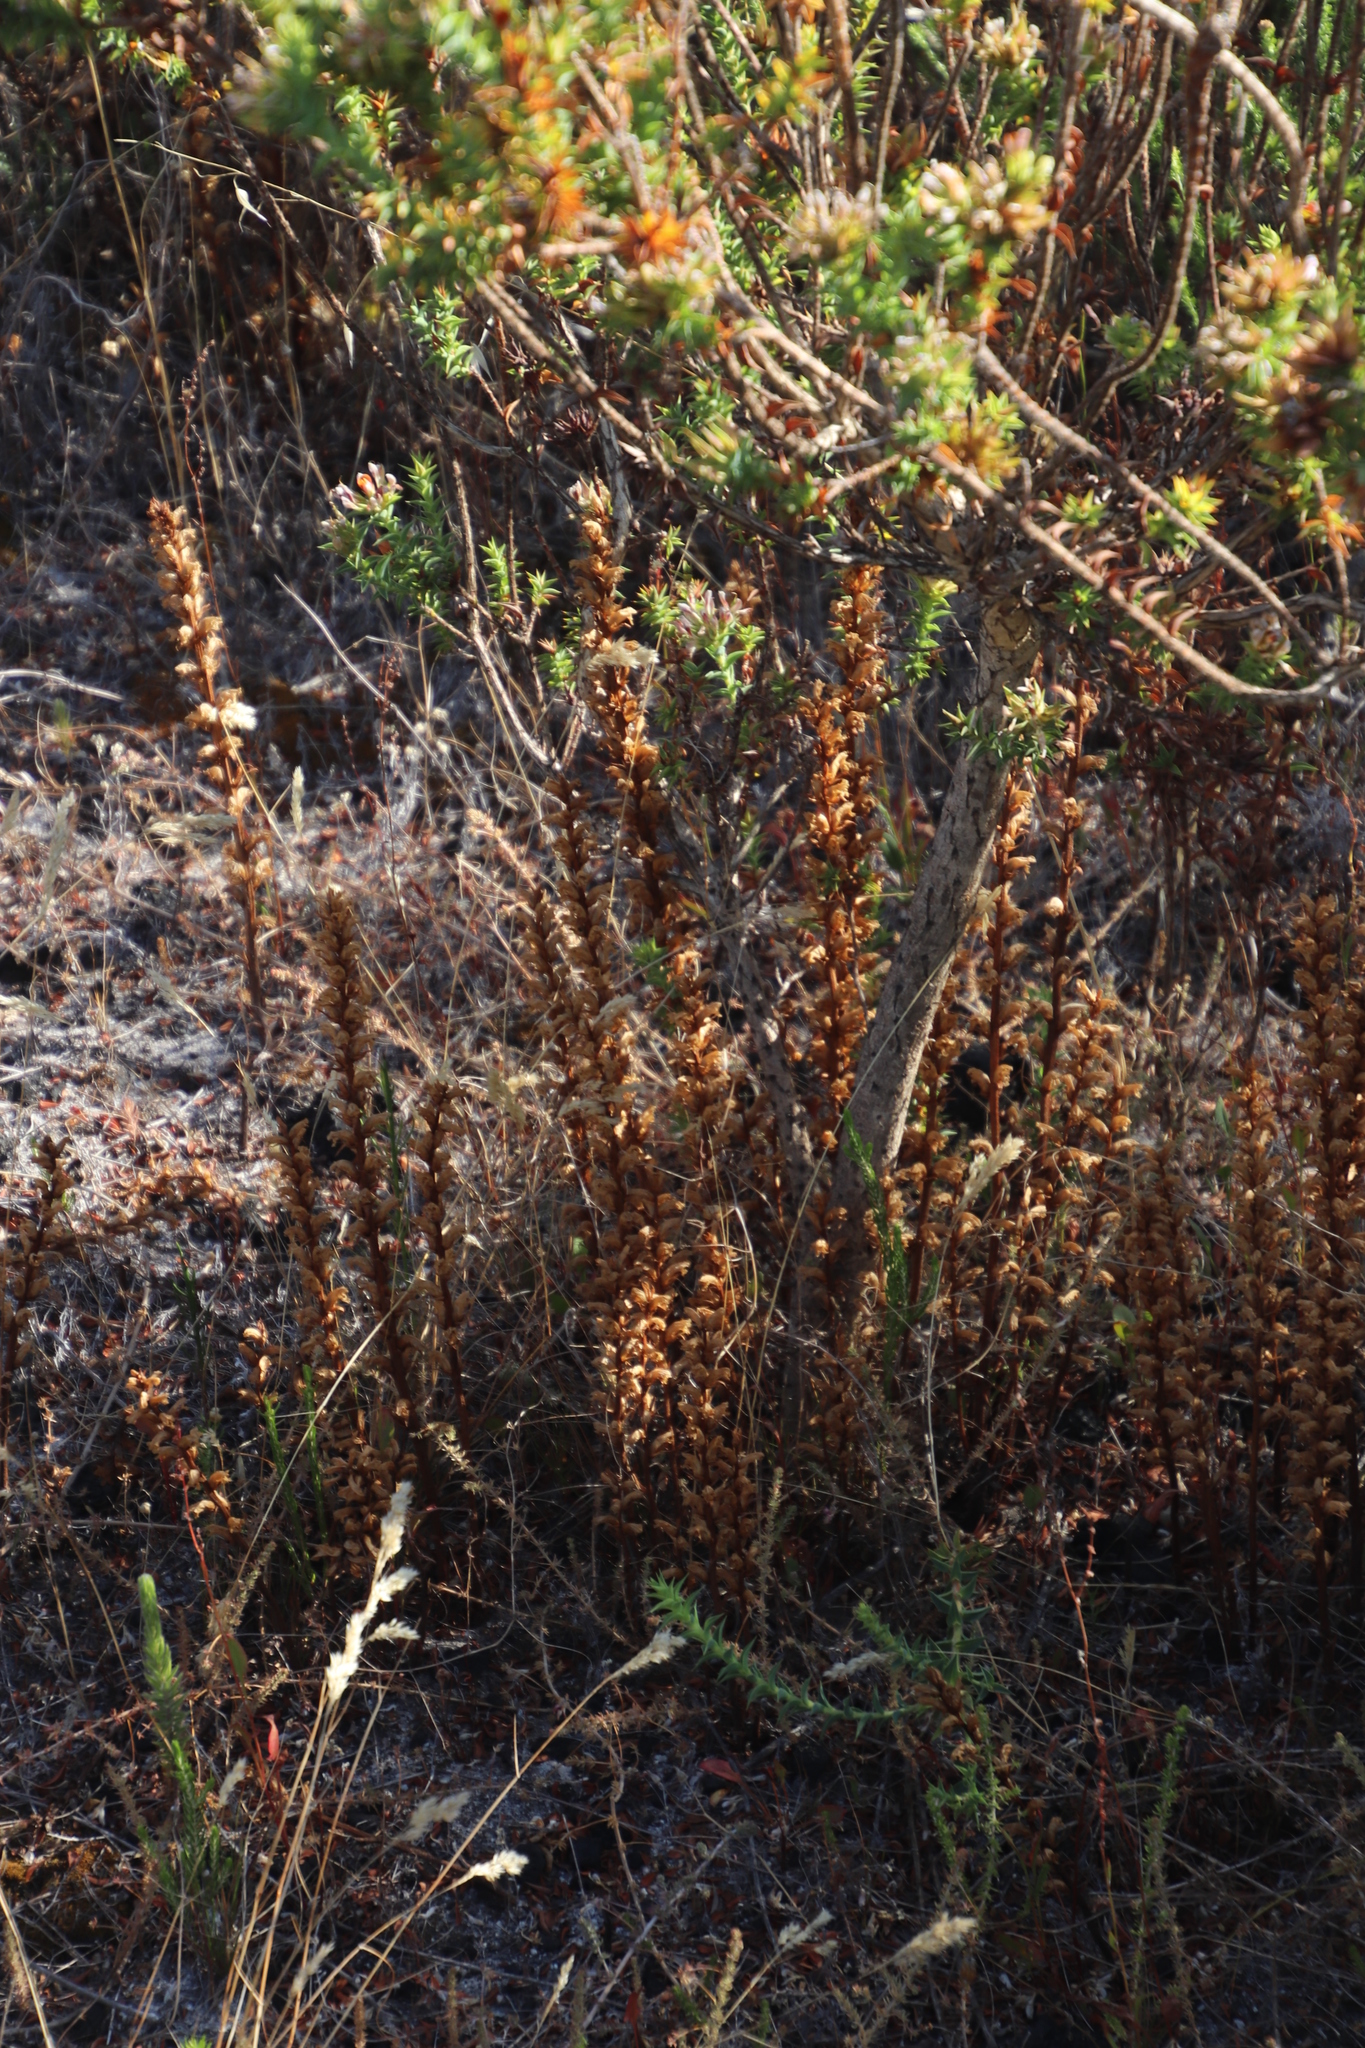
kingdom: Plantae
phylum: Tracheophyta
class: Magnoliopsida
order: Lamiales
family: Orobanchaceae
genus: Orobanche
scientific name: Orobanche minor
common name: Common broomrape
